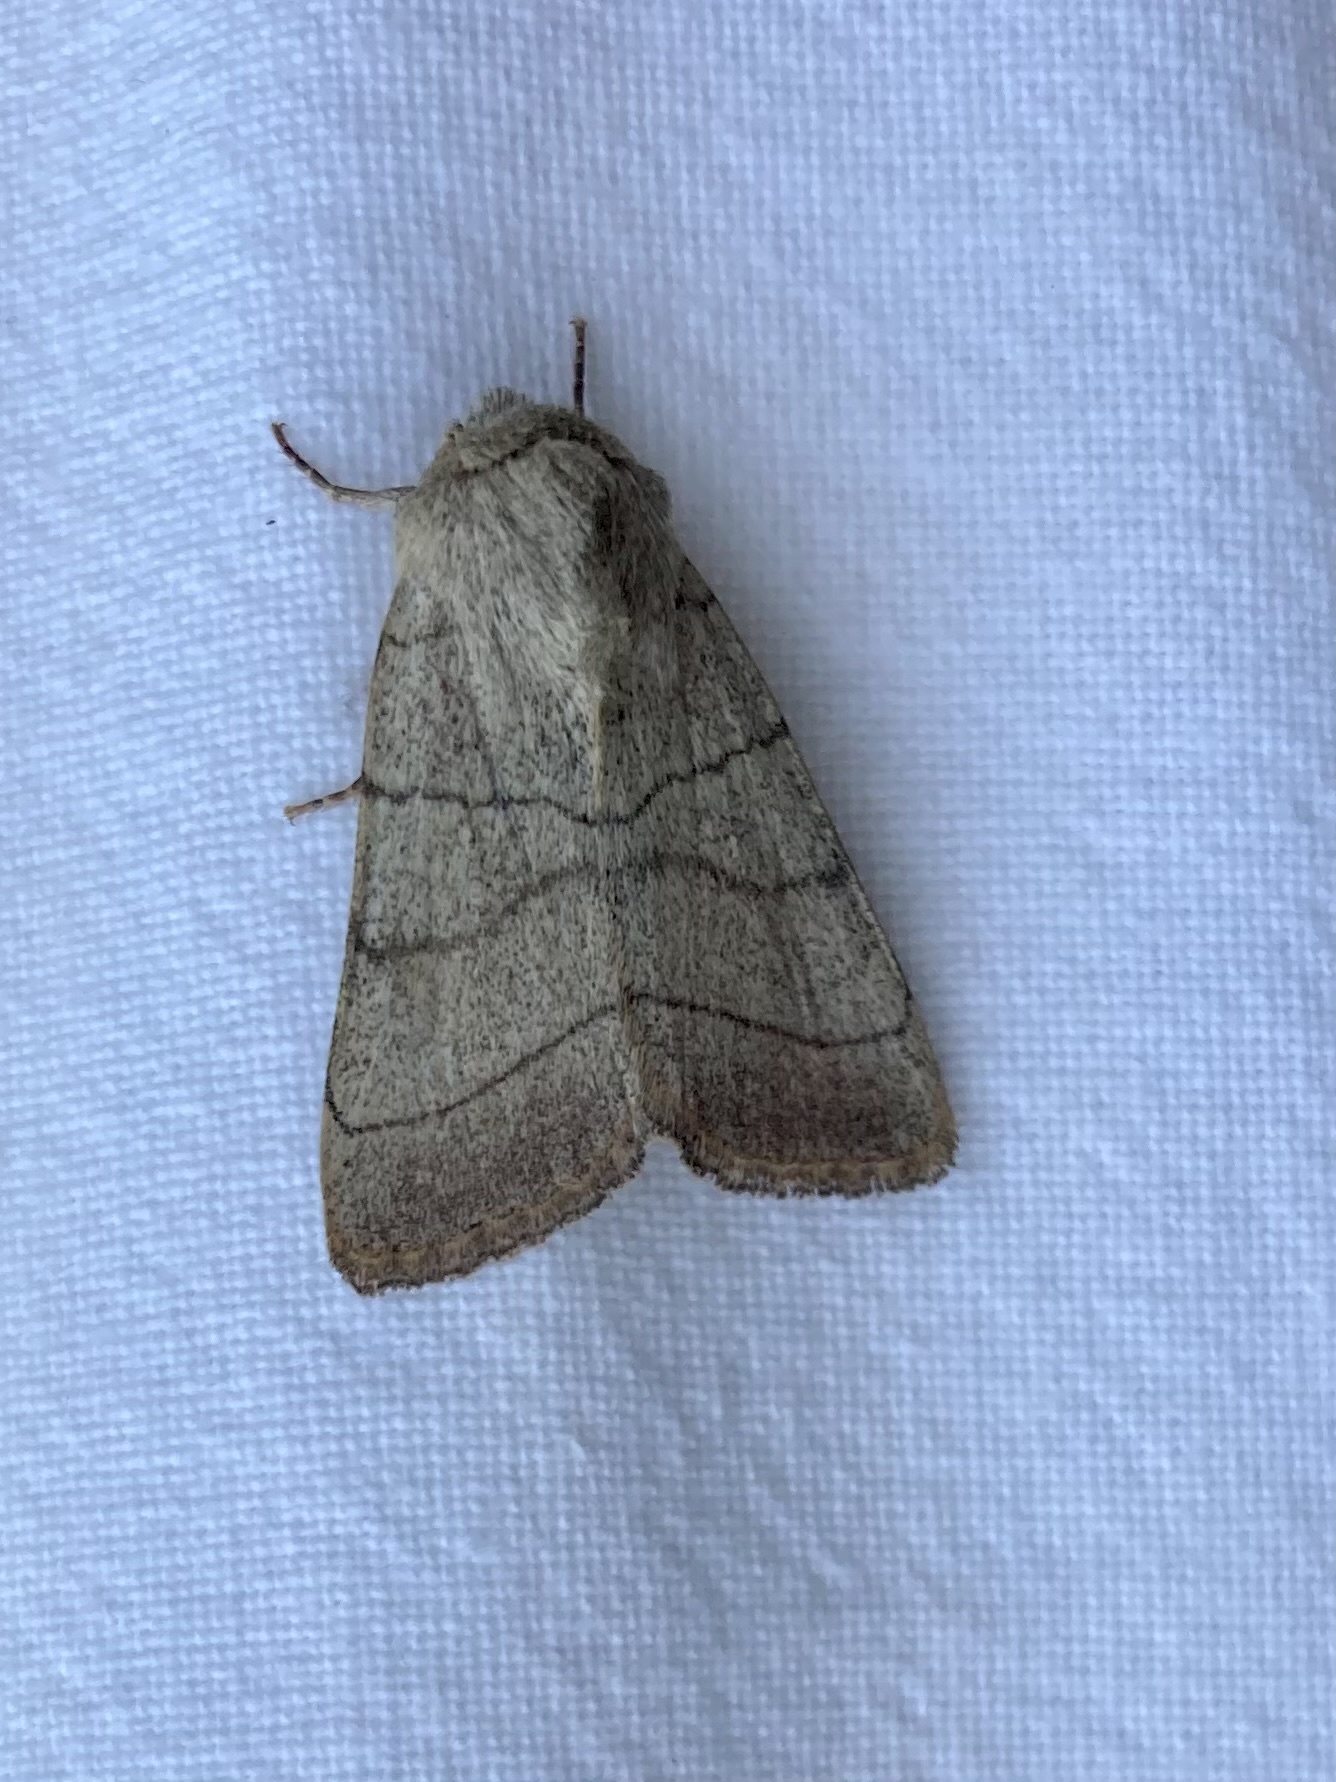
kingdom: Animalia
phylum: Arthropoda
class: Insecta
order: Lepidoptera
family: Noctuidae
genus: Charanyca
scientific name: Charanyca trigrammica
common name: Treble lines
